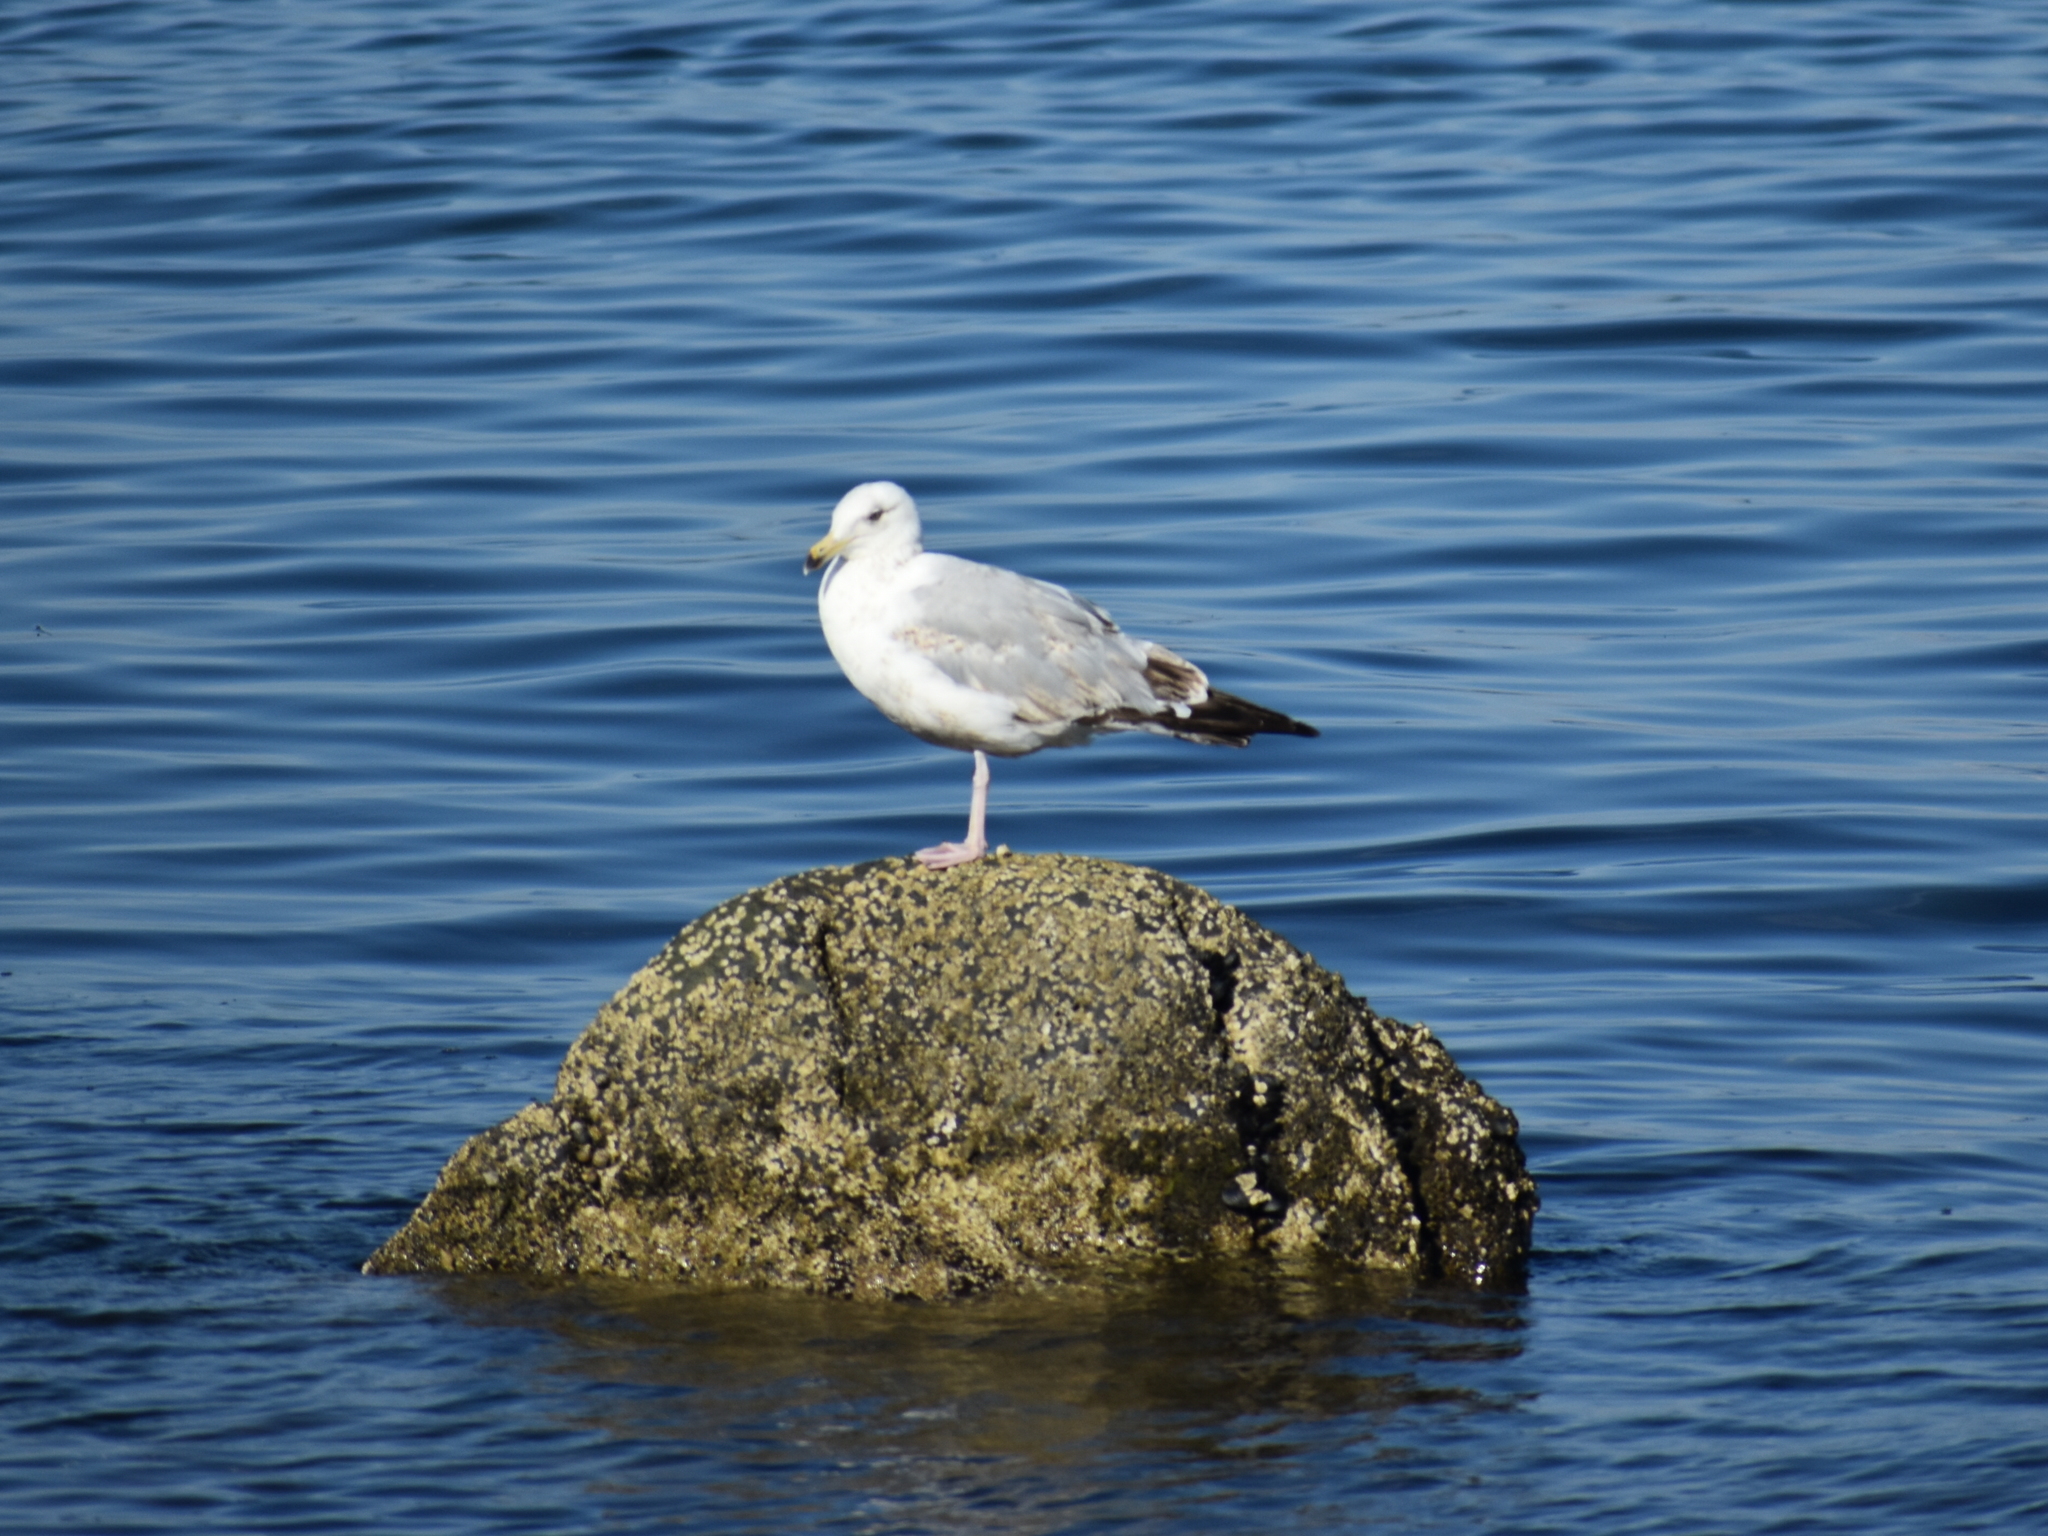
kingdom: Animalia
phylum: Chordata
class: Aves
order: Charadriiformes
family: Laridae
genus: Larus
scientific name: Larus delawarensis
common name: Ring-billed gull
